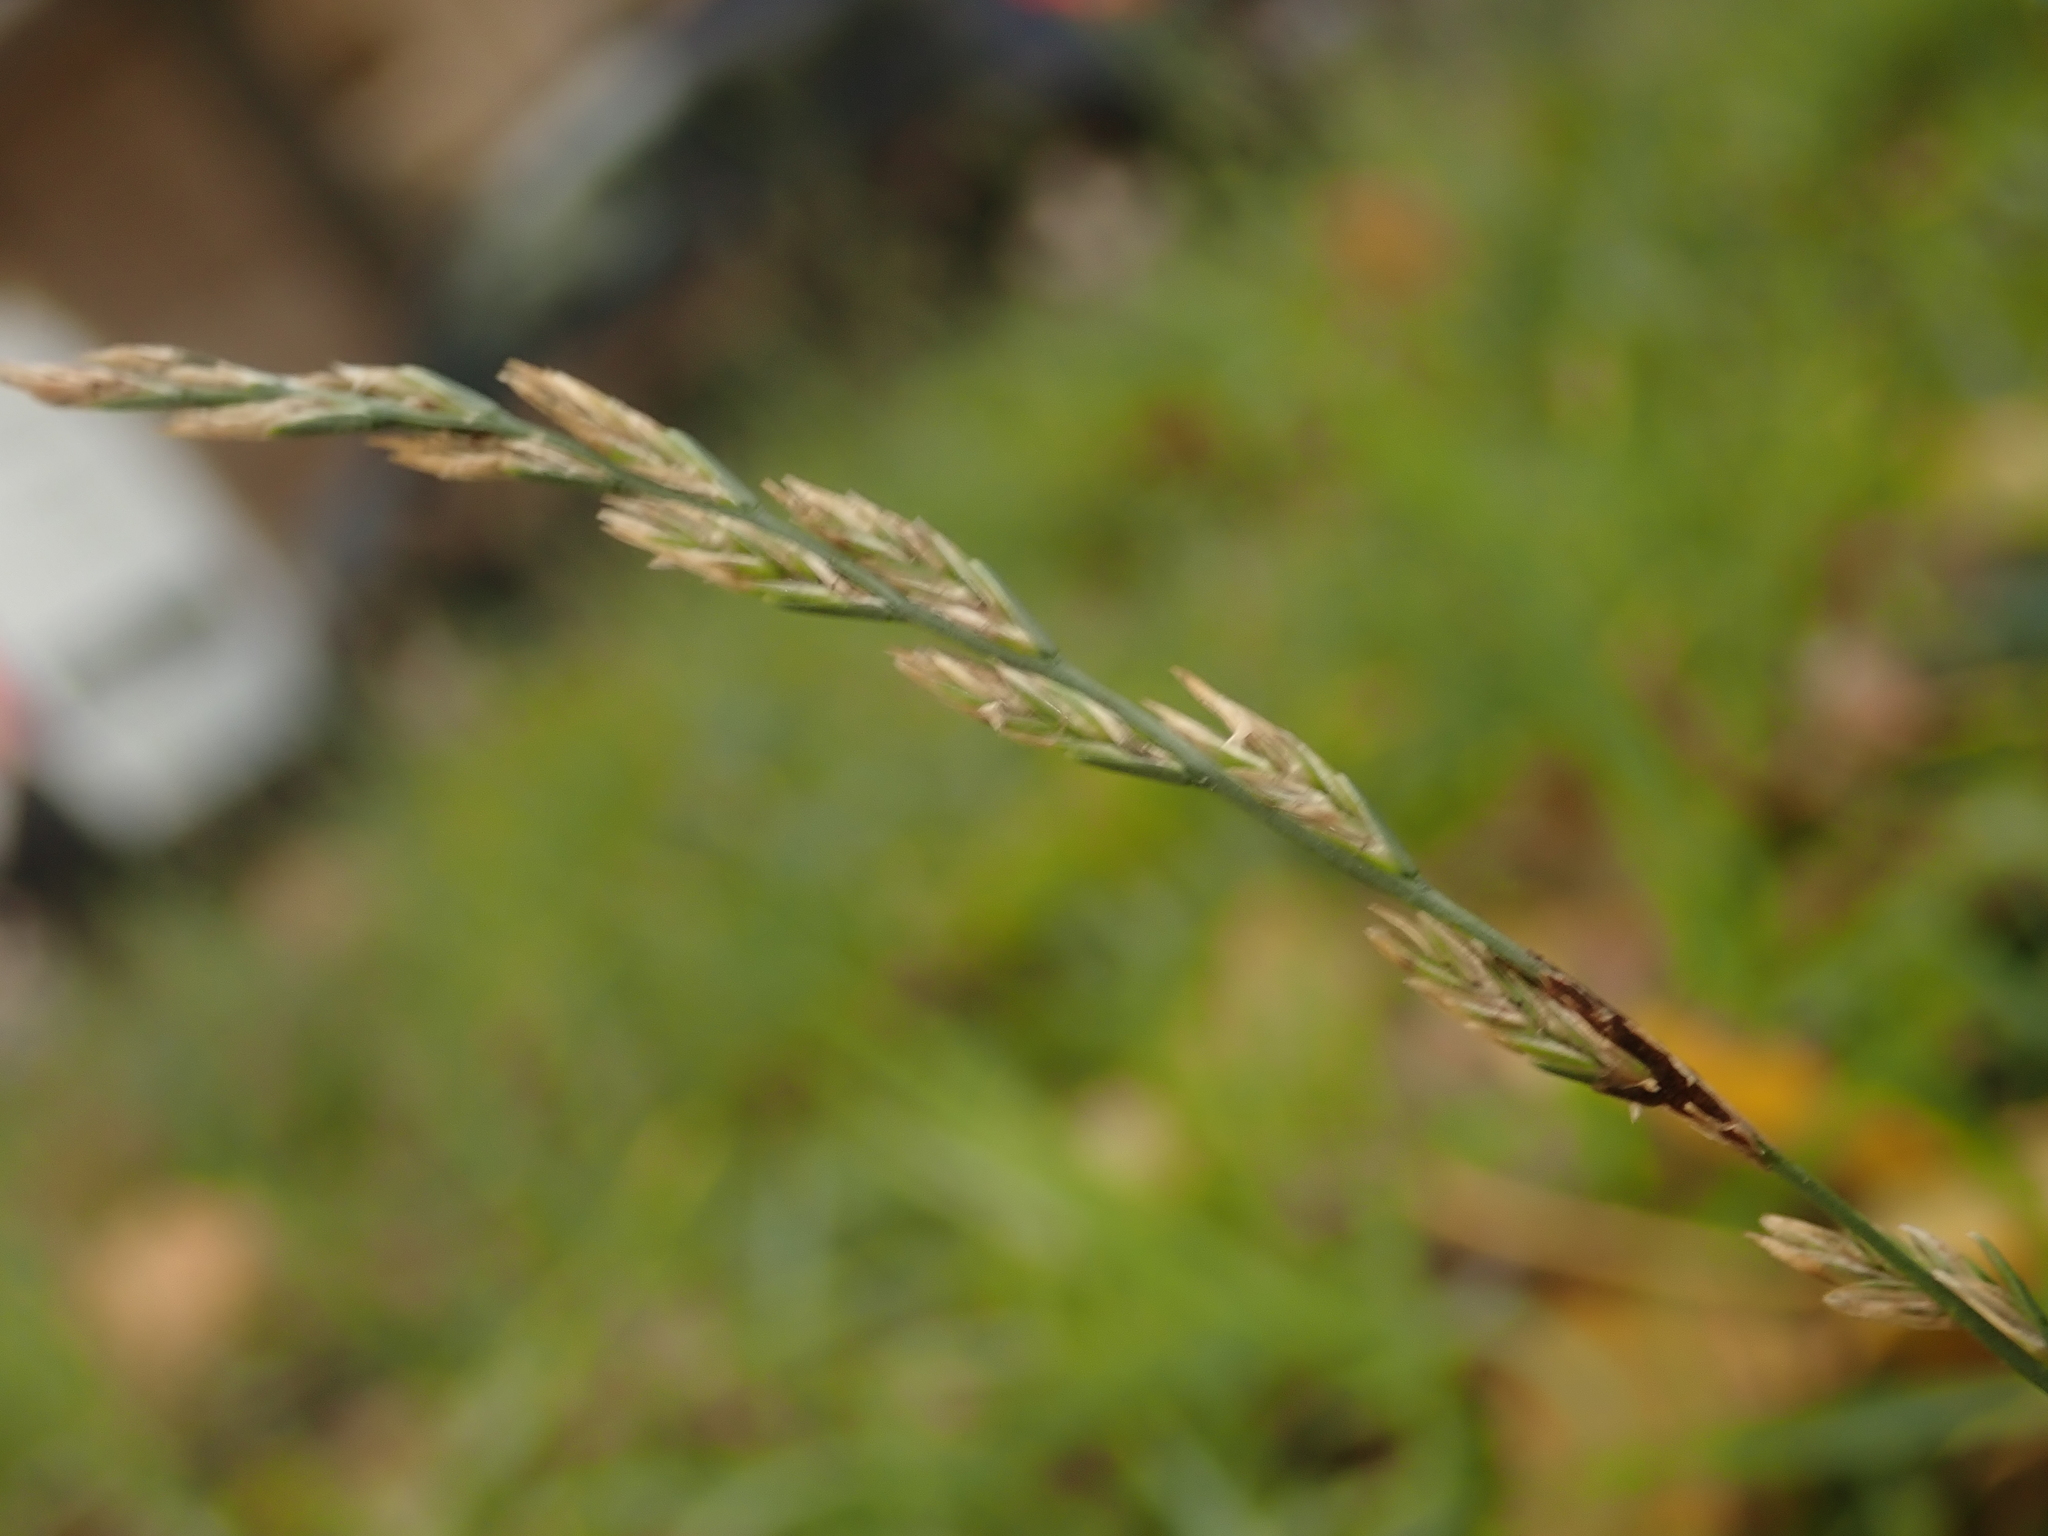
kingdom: Plantae
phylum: Tracheophyta
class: Liliopsida
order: Poales
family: Poaceae
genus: Lolium
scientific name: Lolium perenne
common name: Perennial ryegrass
